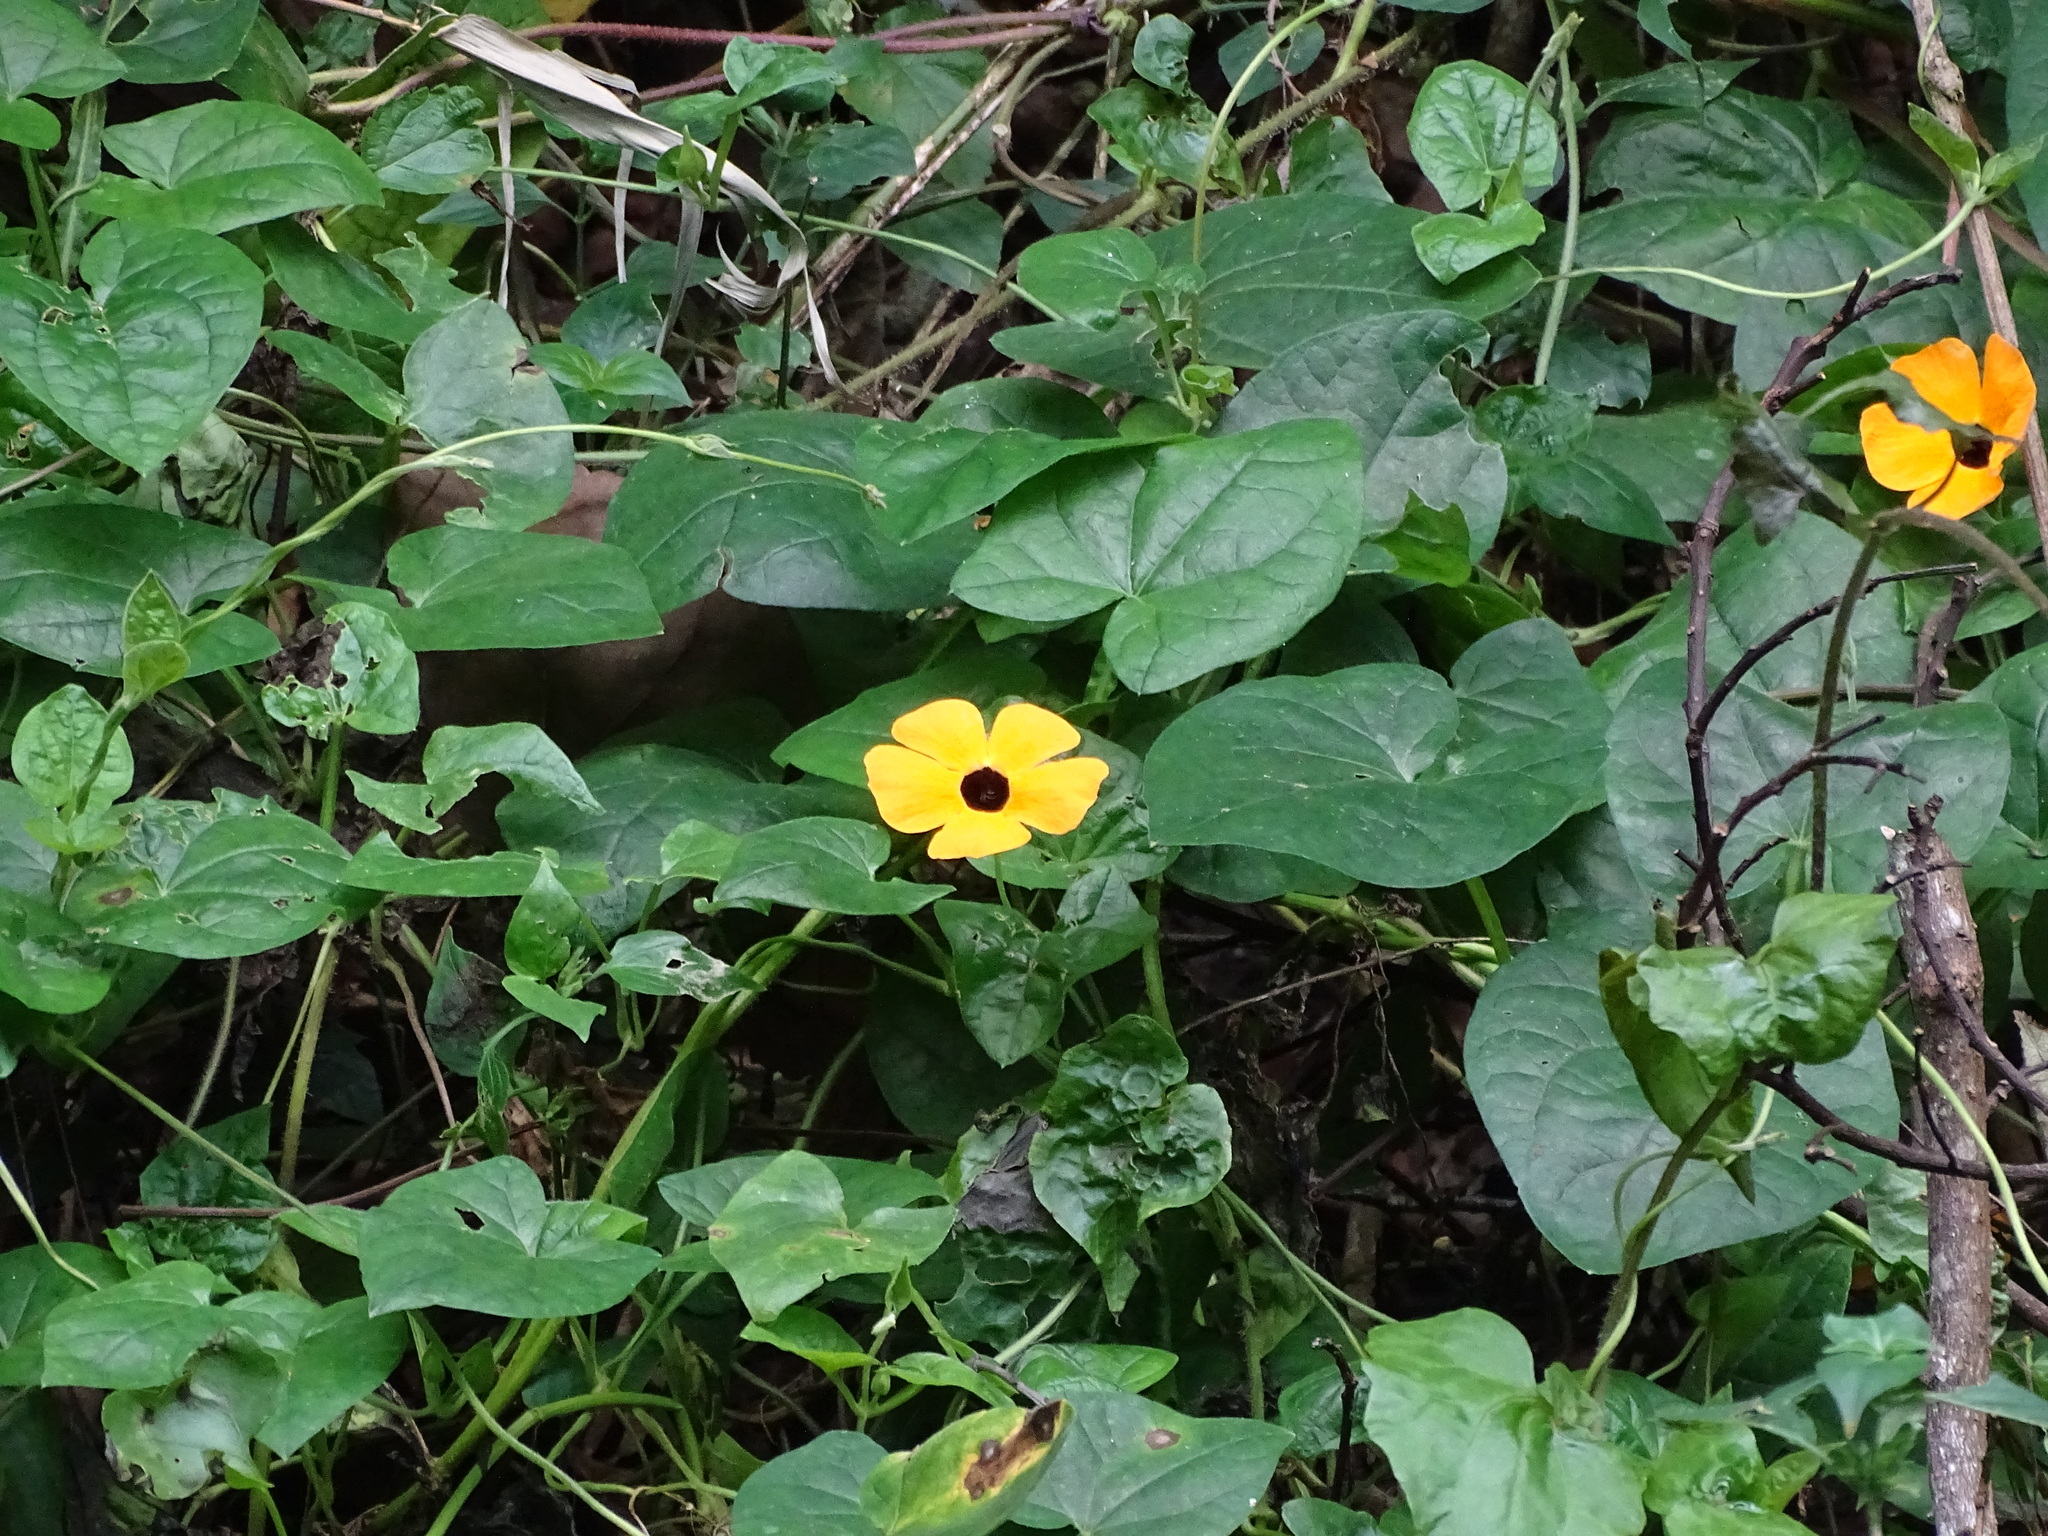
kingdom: Plantae
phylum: Tracheophyta
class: Magnoliopsida
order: Lamiales
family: Acanthaceae
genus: Thunbergia
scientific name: Thunbergia alata
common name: Blackeyed susan vine
